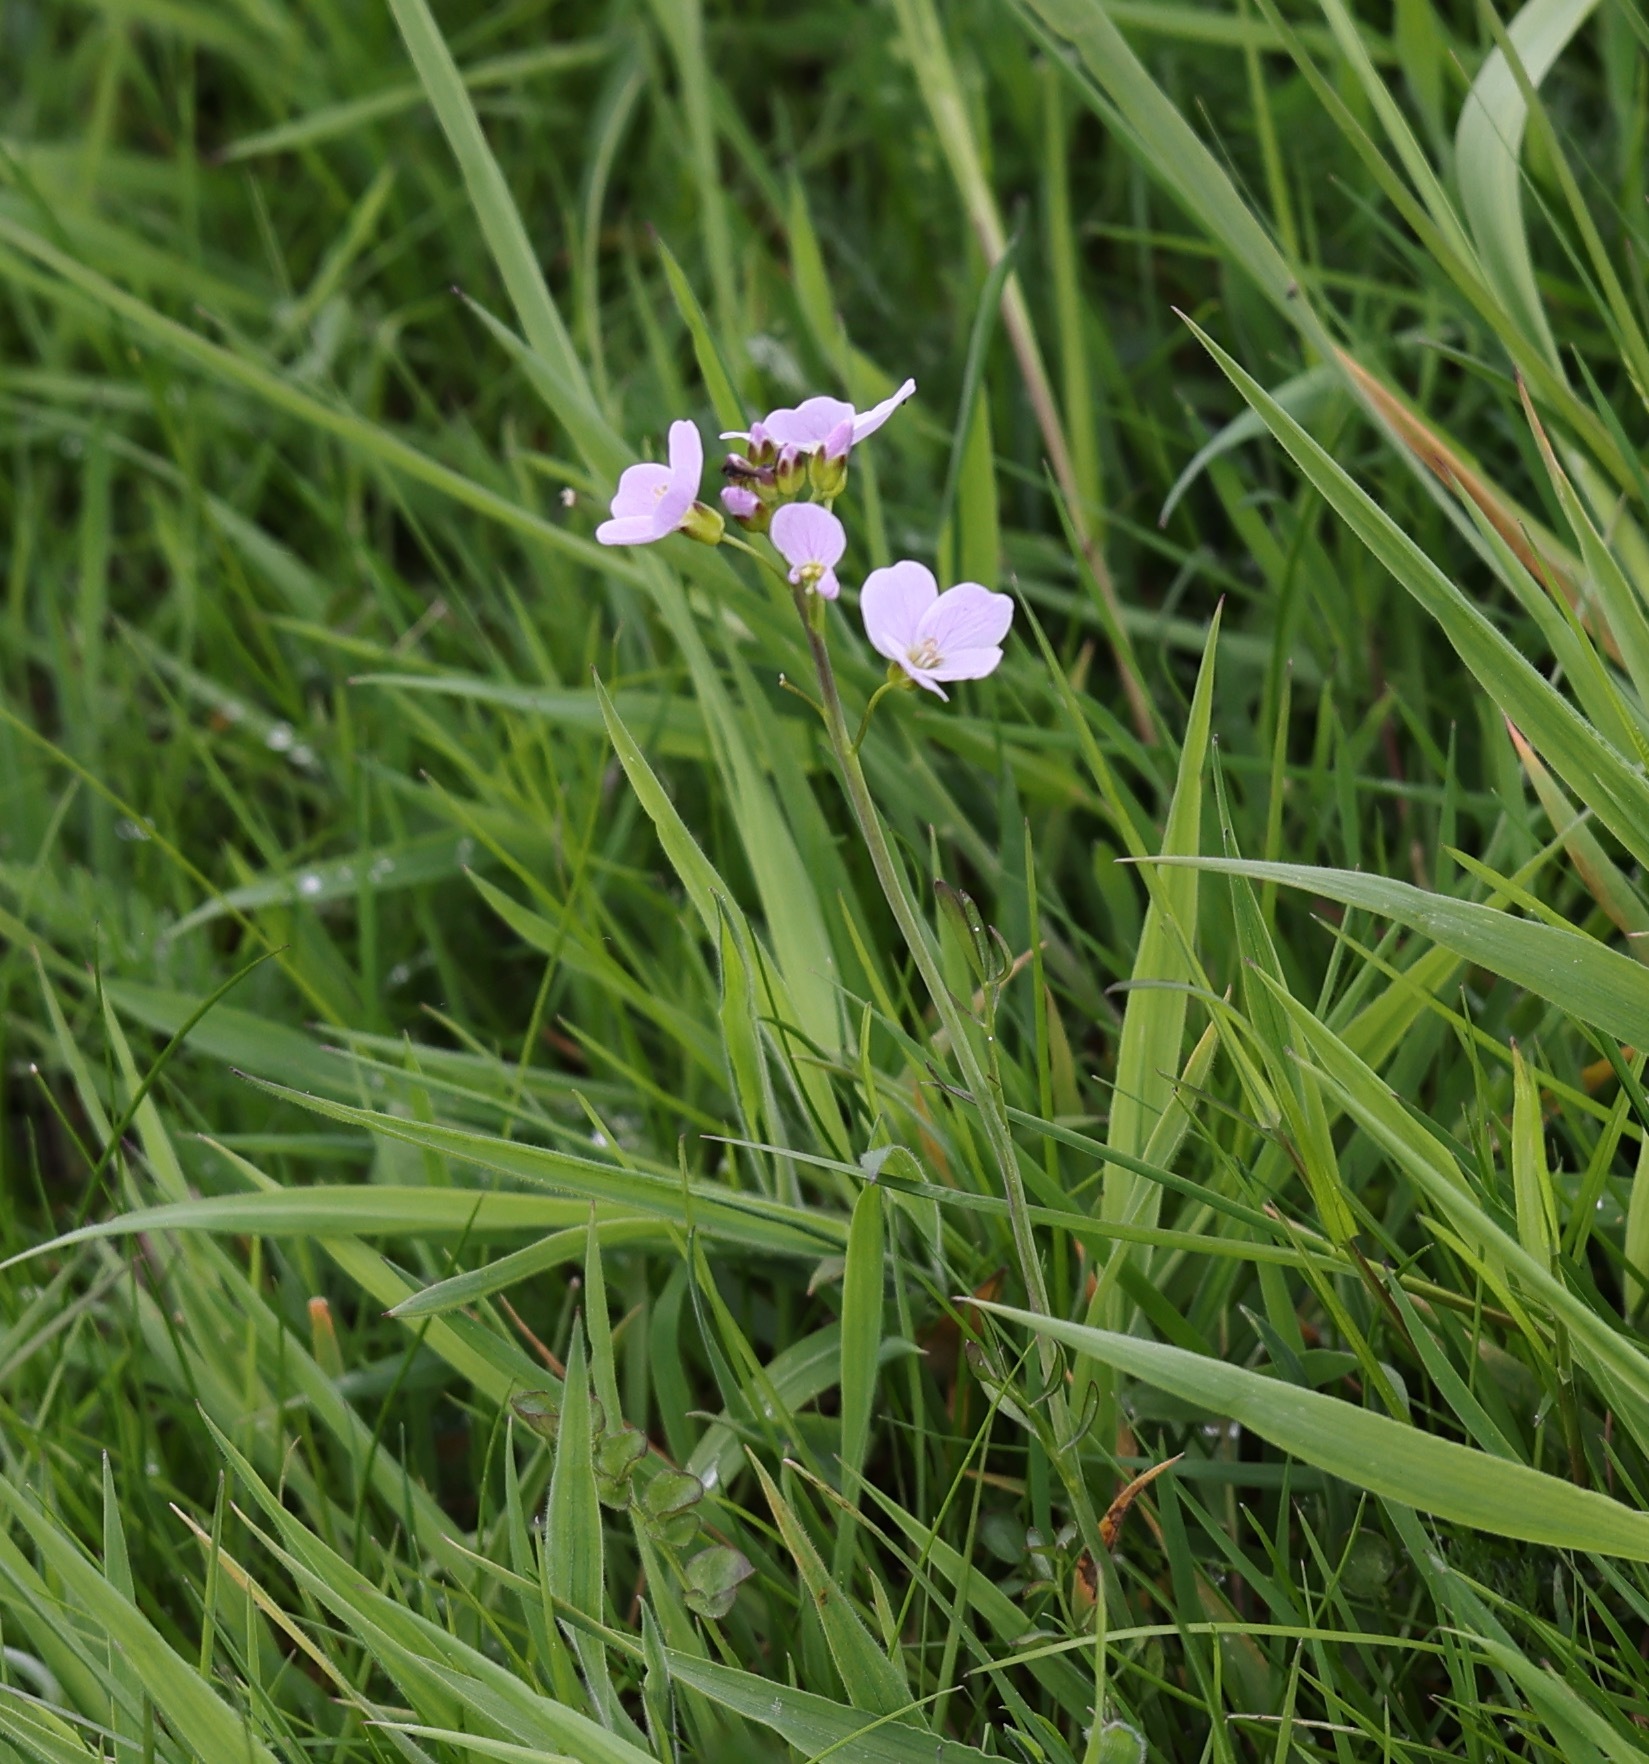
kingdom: Plantae
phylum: Tracheophyta
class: Magnoliopsida
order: Brassicales
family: Brassicaceae
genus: Cardamine
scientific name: Cardamine pratensis
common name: Cuckoo flower
